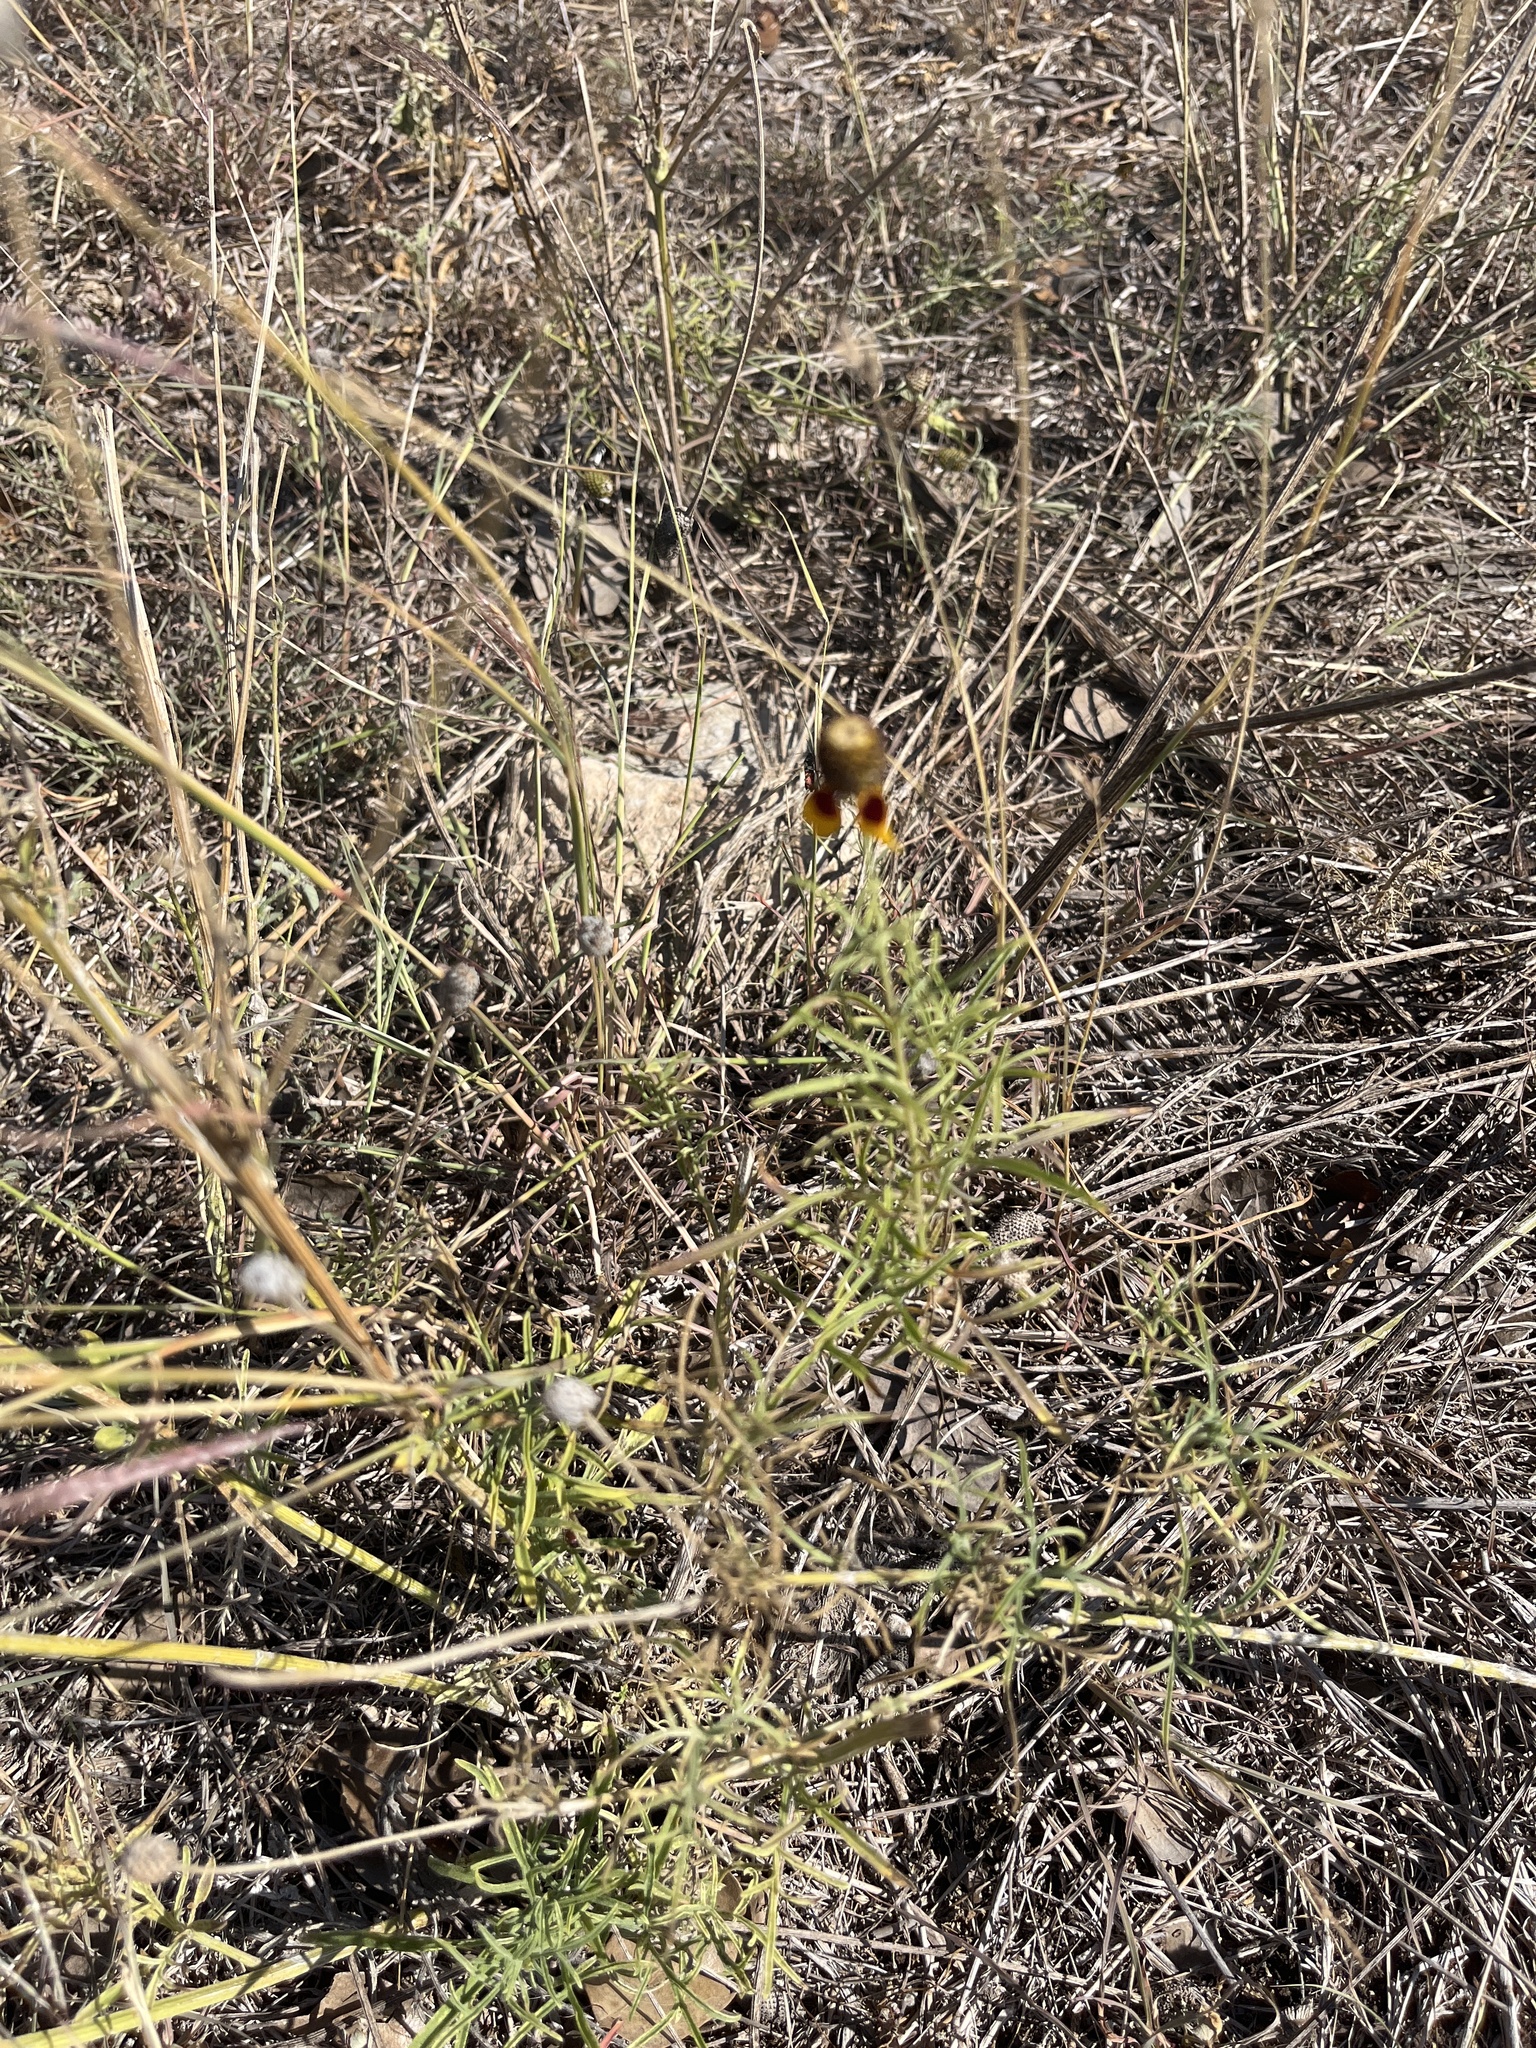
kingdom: Plantae
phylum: Tracheophyta
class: Magnoliopsida
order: Asterales
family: Asteraceae
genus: Ratibida
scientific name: Ratibida columnifera
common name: Prairie coneflower
